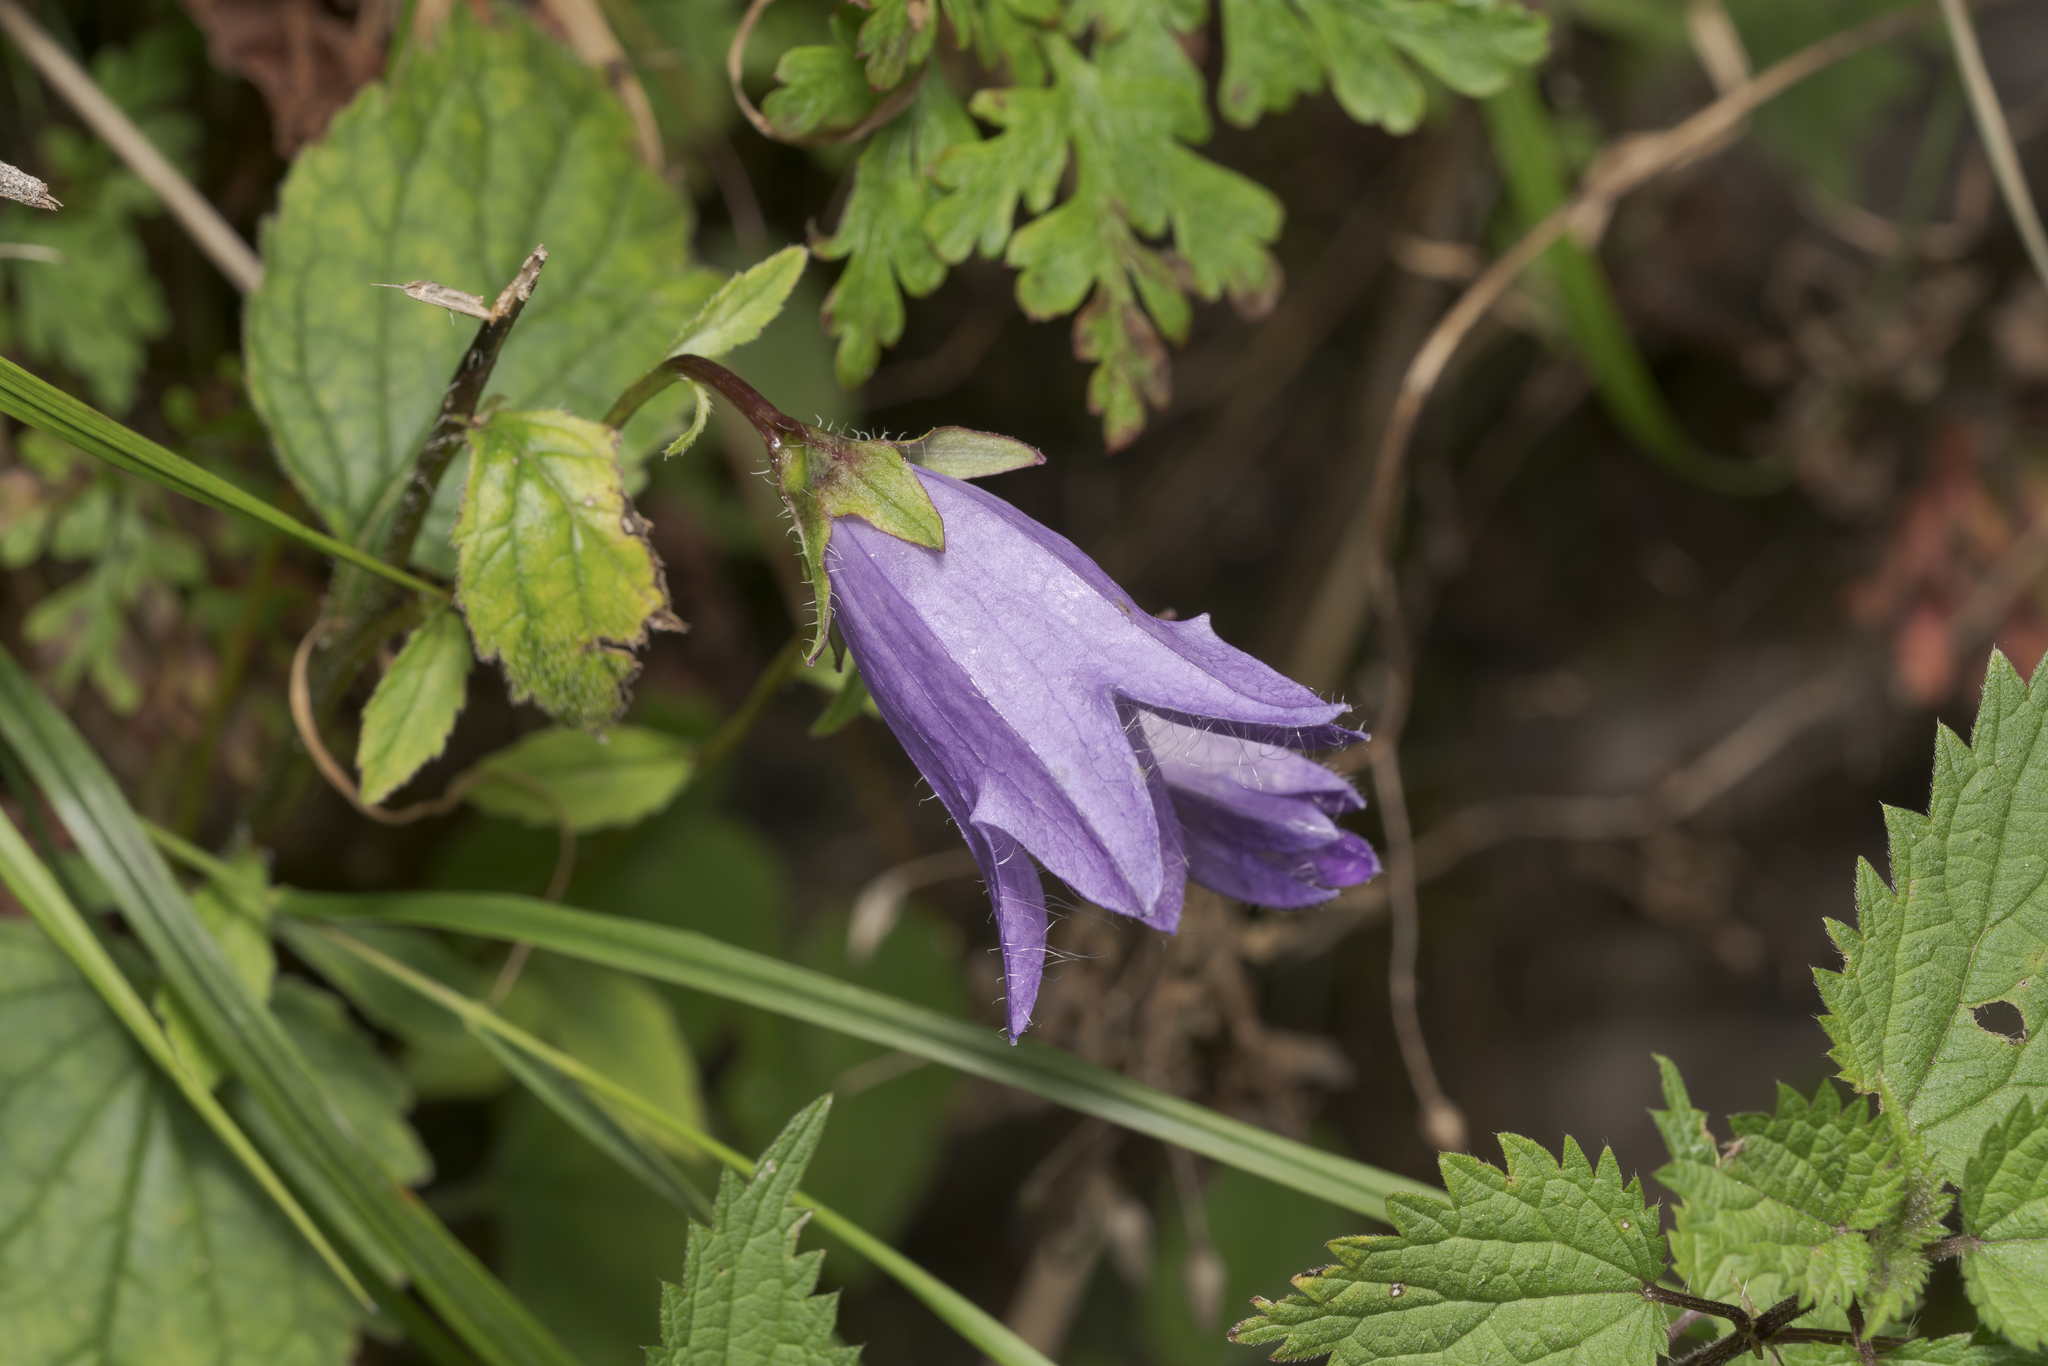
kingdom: Plantae
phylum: Tracheophyta
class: Magnoliopsida
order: Asterales
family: Campanulaceae
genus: Campanula
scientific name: Campanula trachelium
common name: Nettle-leaved bellflower
